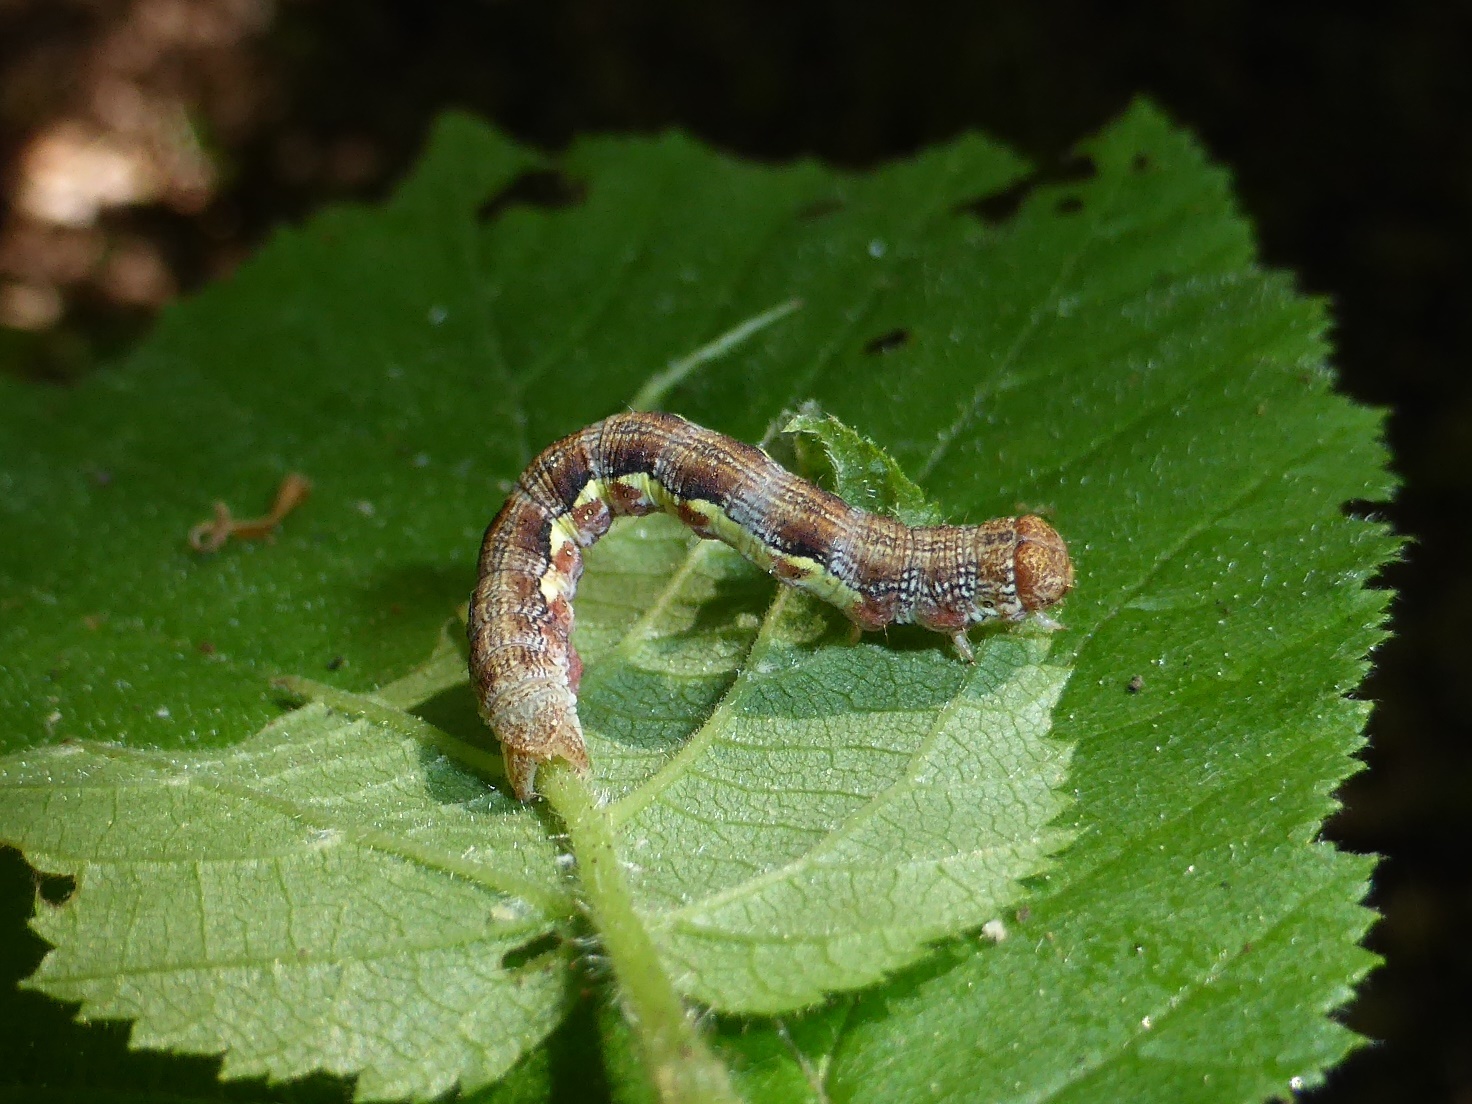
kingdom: Animalia
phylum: Arthropoda
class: Insecta
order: Lepidoptera
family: Geometridae
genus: Erannis
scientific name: Erannis defoliaria
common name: Mottled umber
